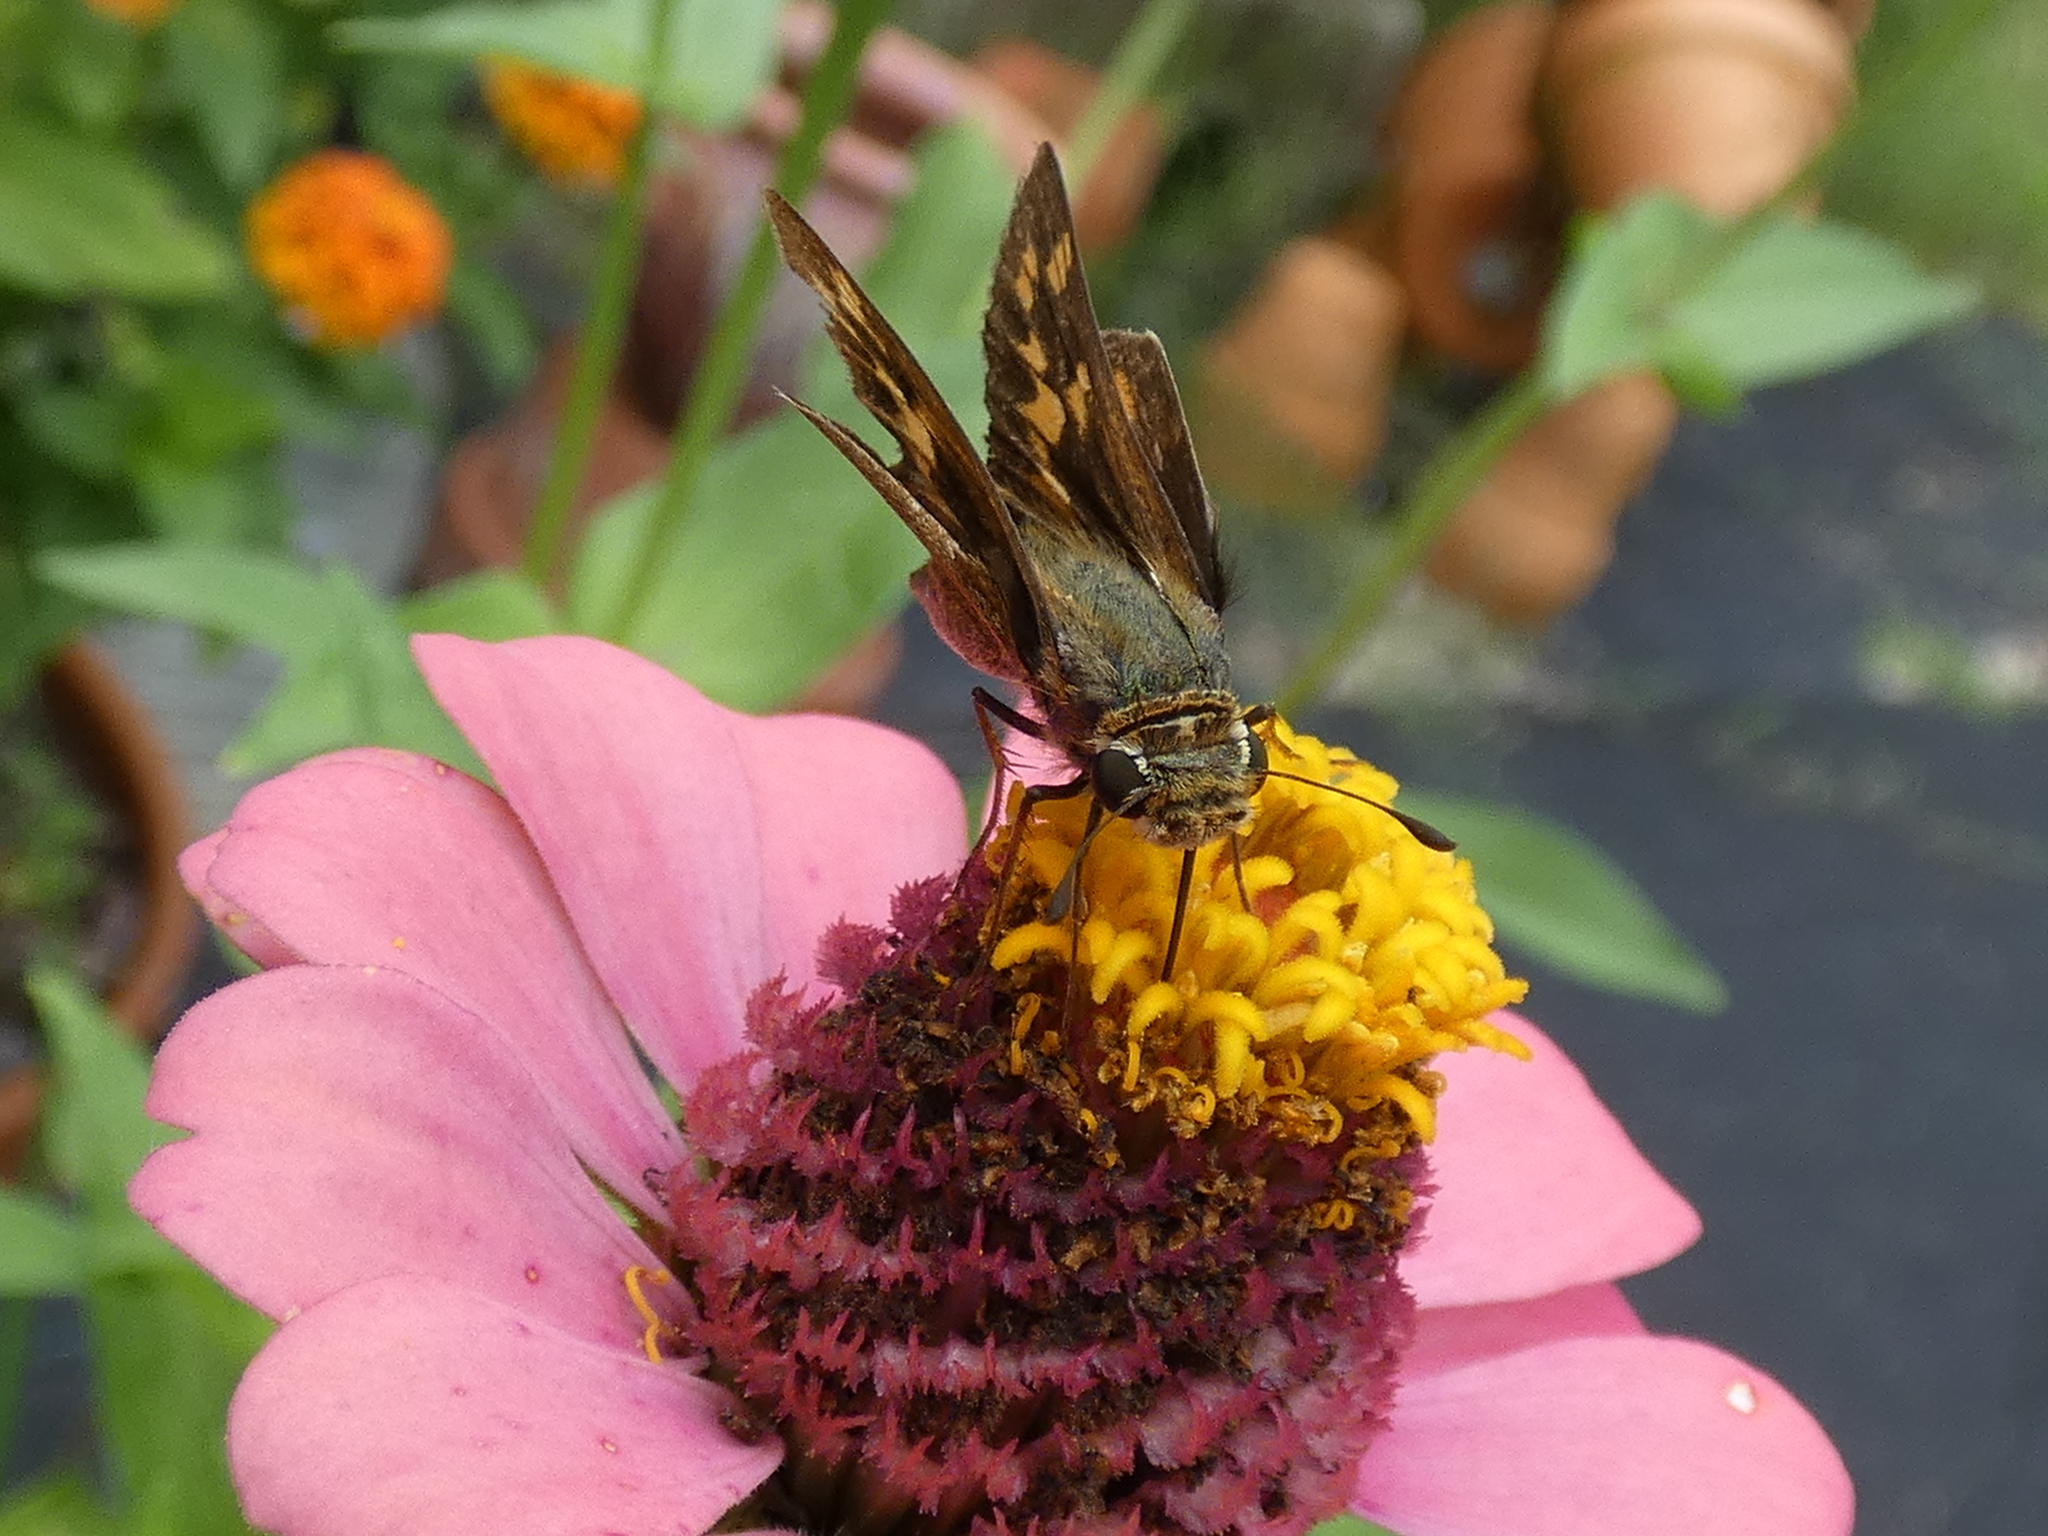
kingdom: Animalia
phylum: Arthropoda
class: Insecta
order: Lepidoptera
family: Hesperiidae
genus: Hylephila
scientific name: Hylephila phyleus
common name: Fiery skipper
